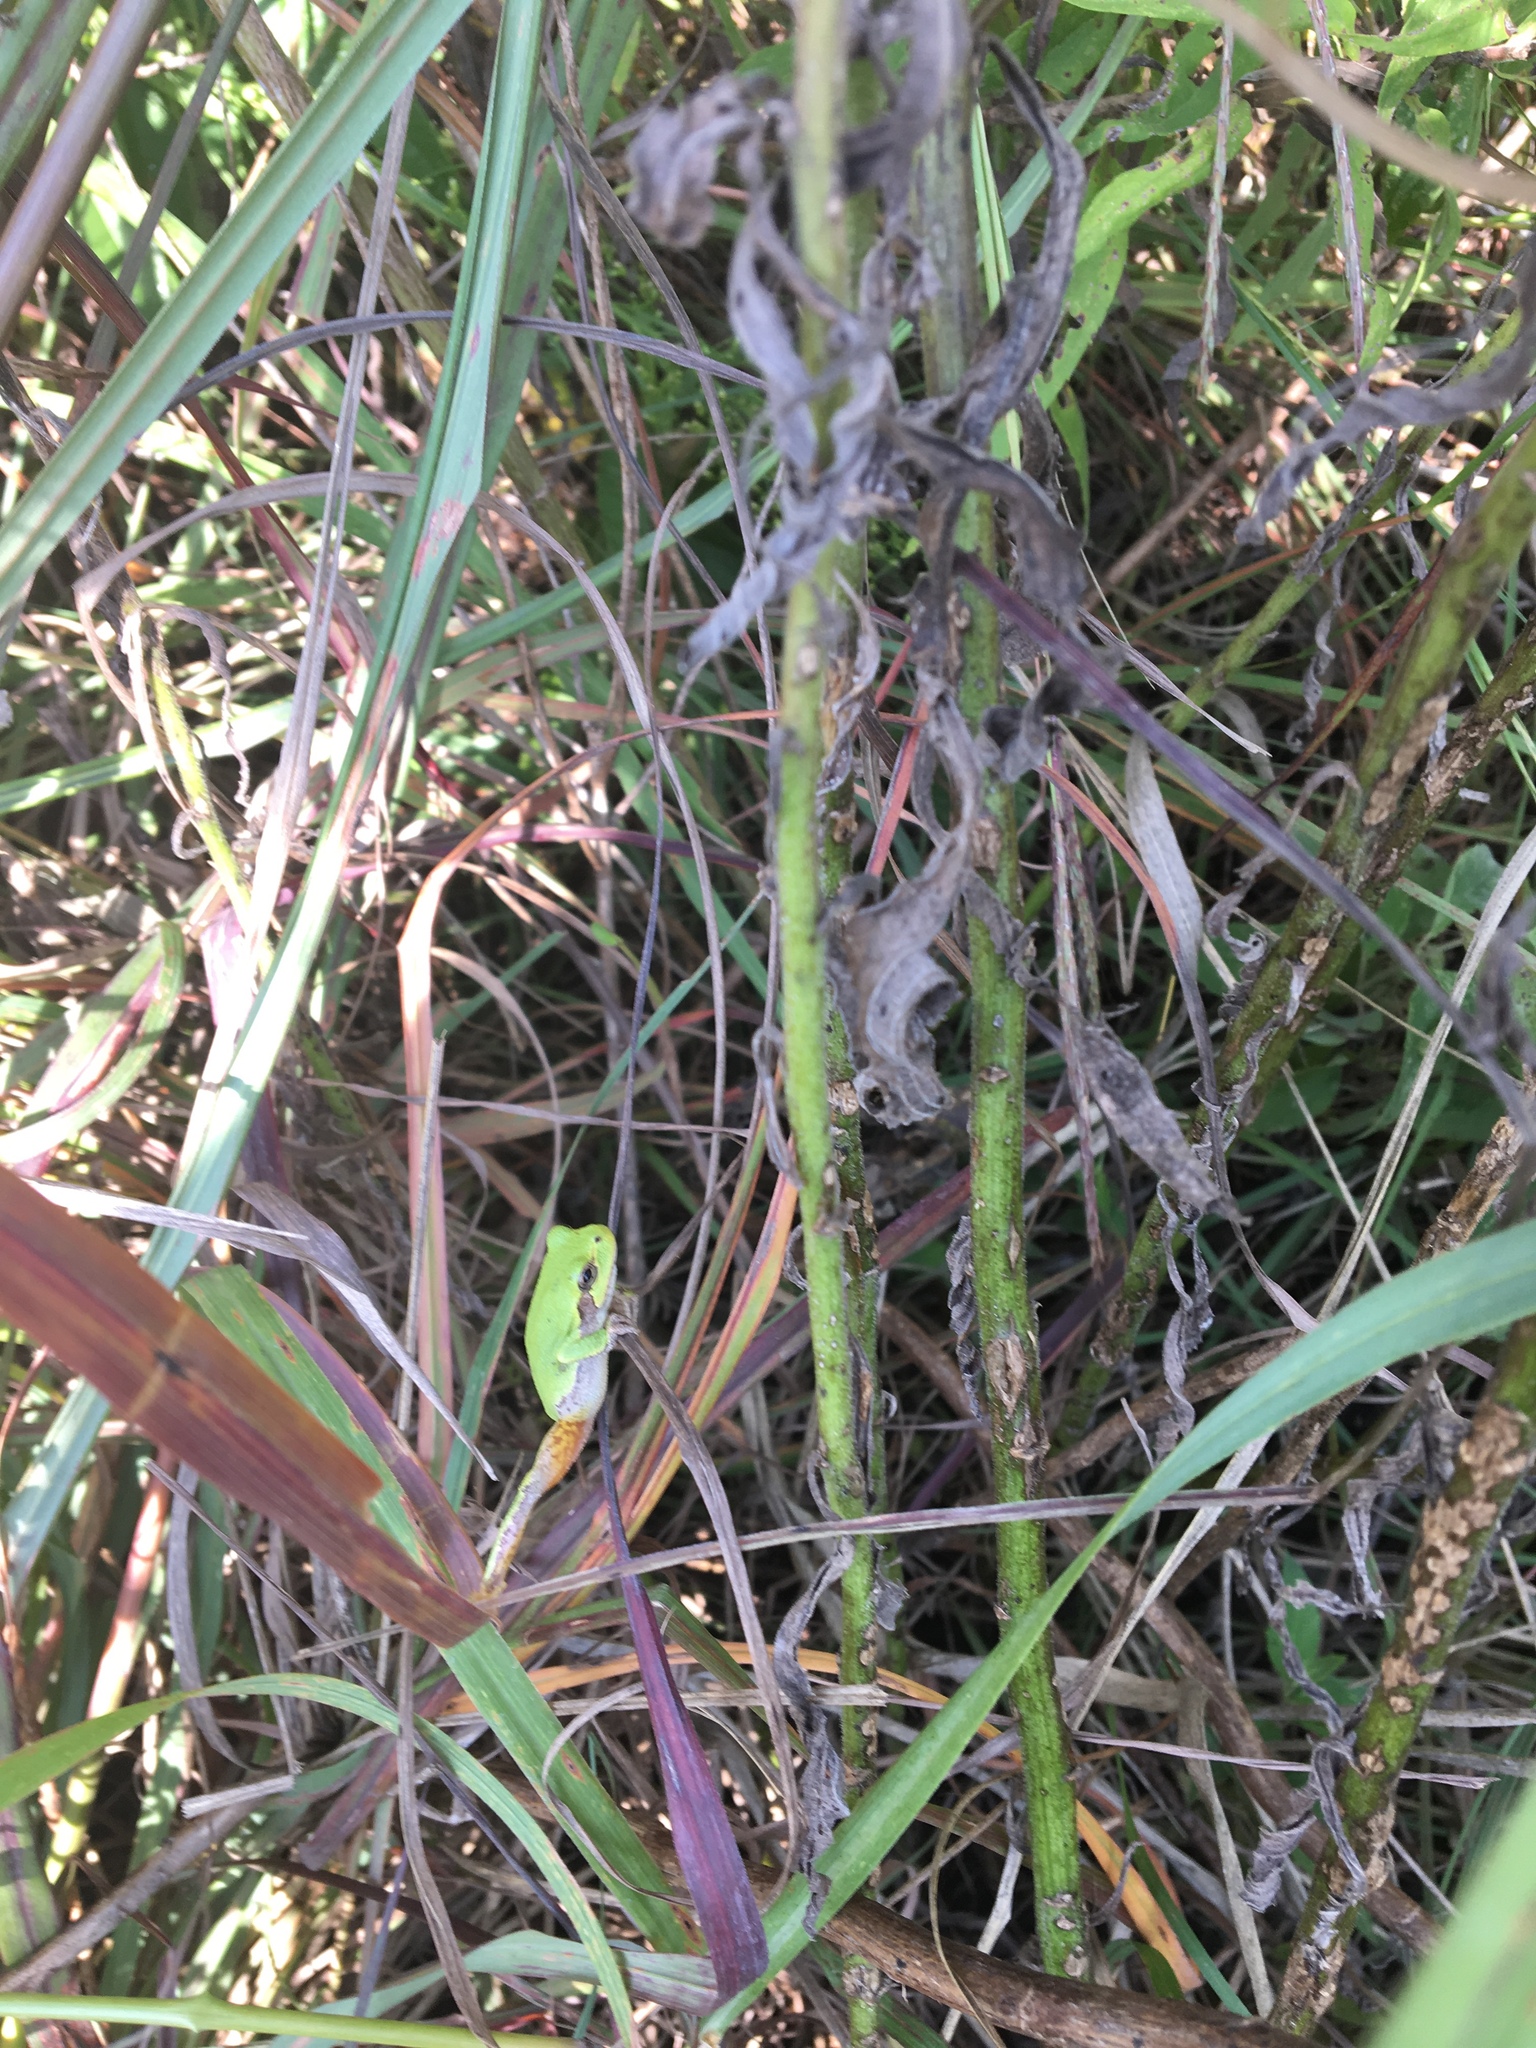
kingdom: Animalia
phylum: Chordata
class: Amphibia
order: Anura
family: Hylidae
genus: Hyla
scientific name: Hyla
